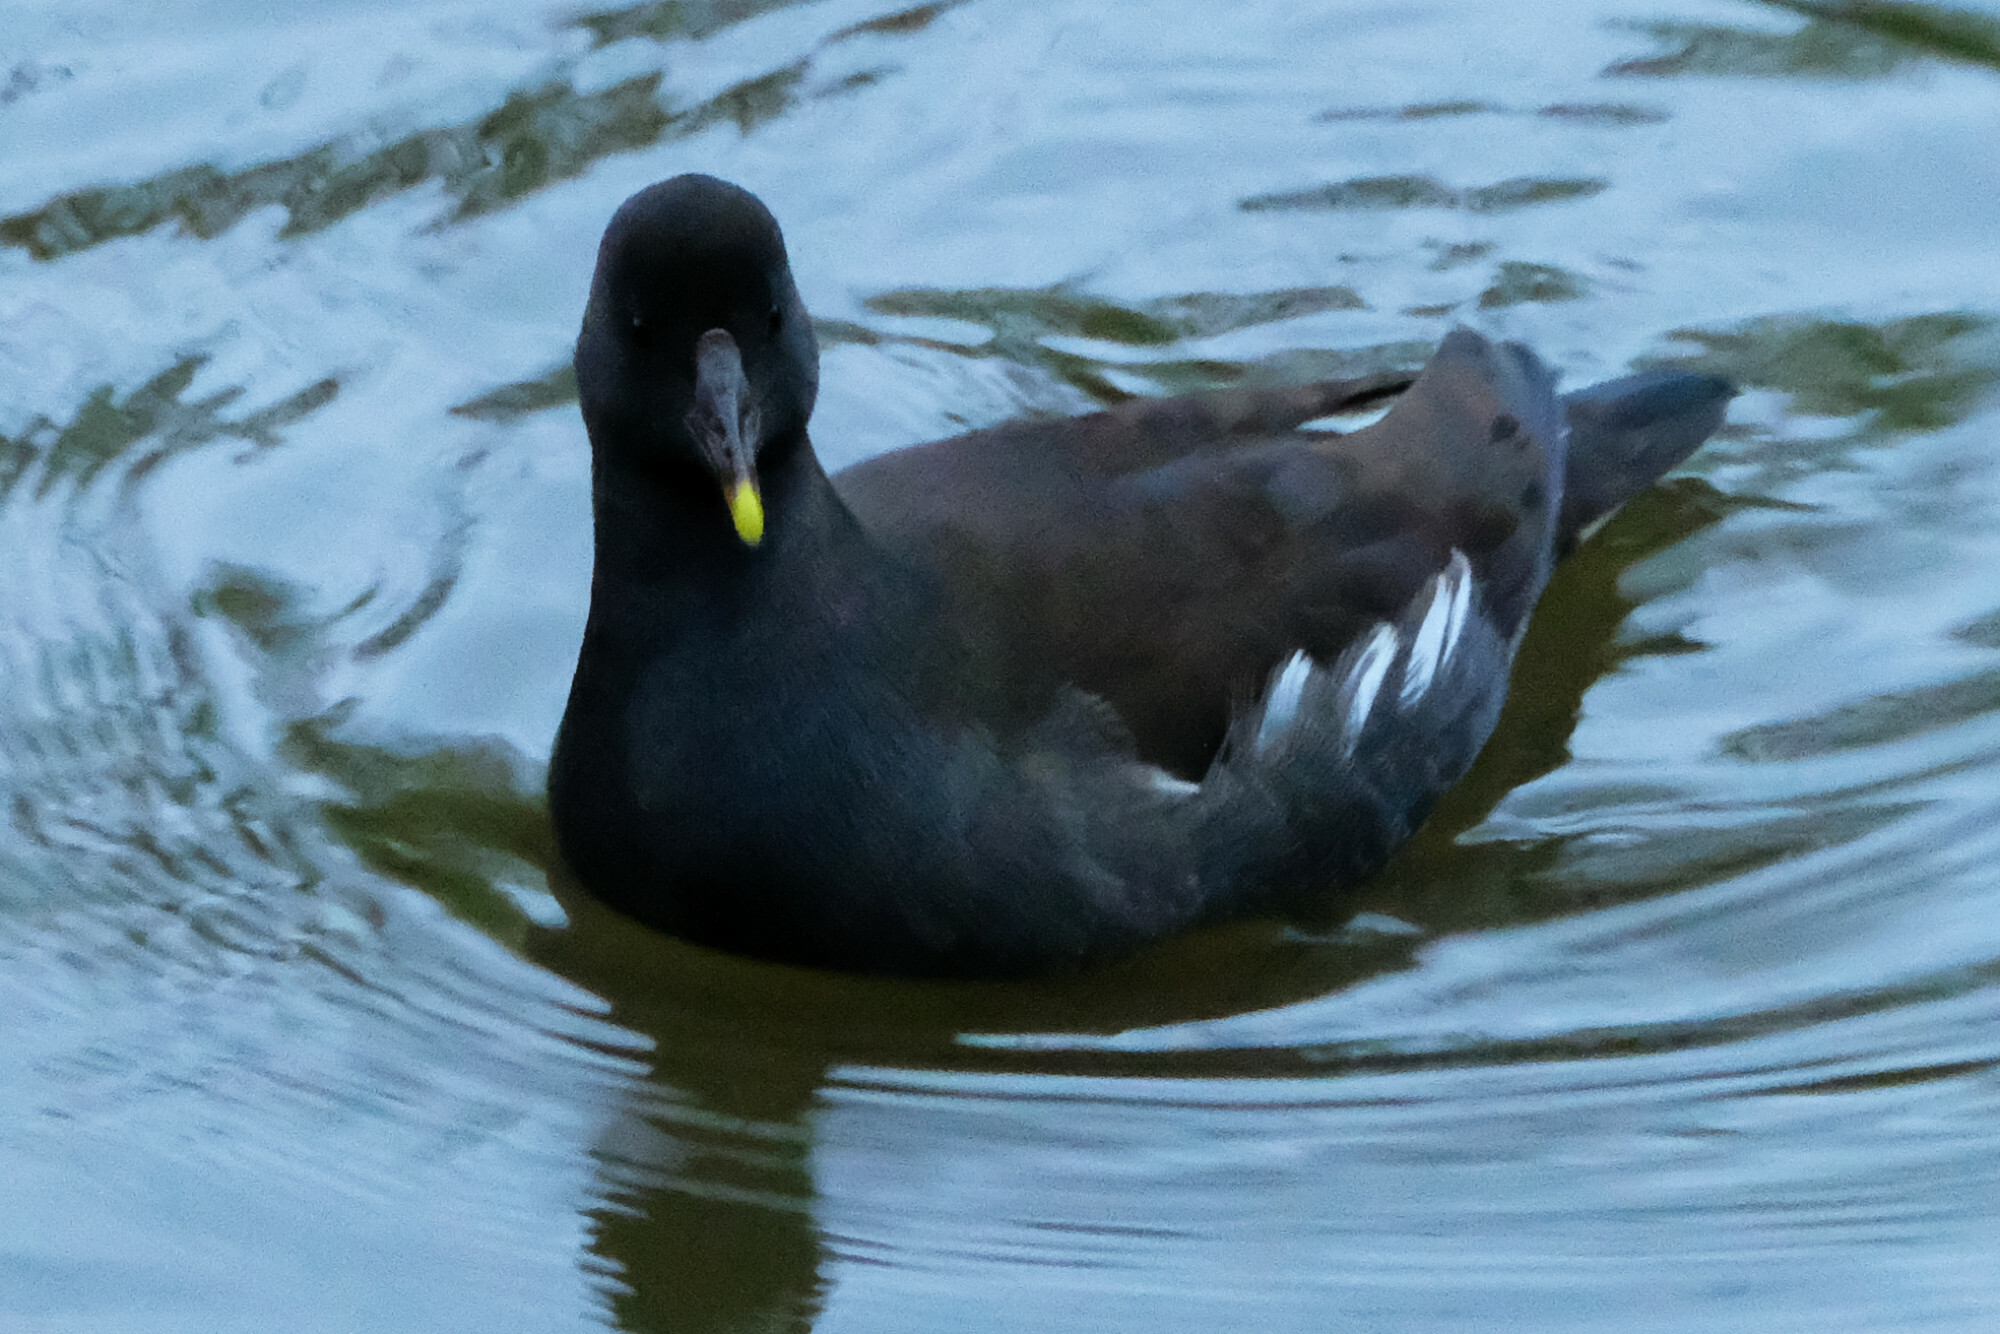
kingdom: Animalia
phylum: Chordata
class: Aves
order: Gruiformes
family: Rallidae
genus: Gallinula
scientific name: Gallinula chloropus
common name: Common moorhen
